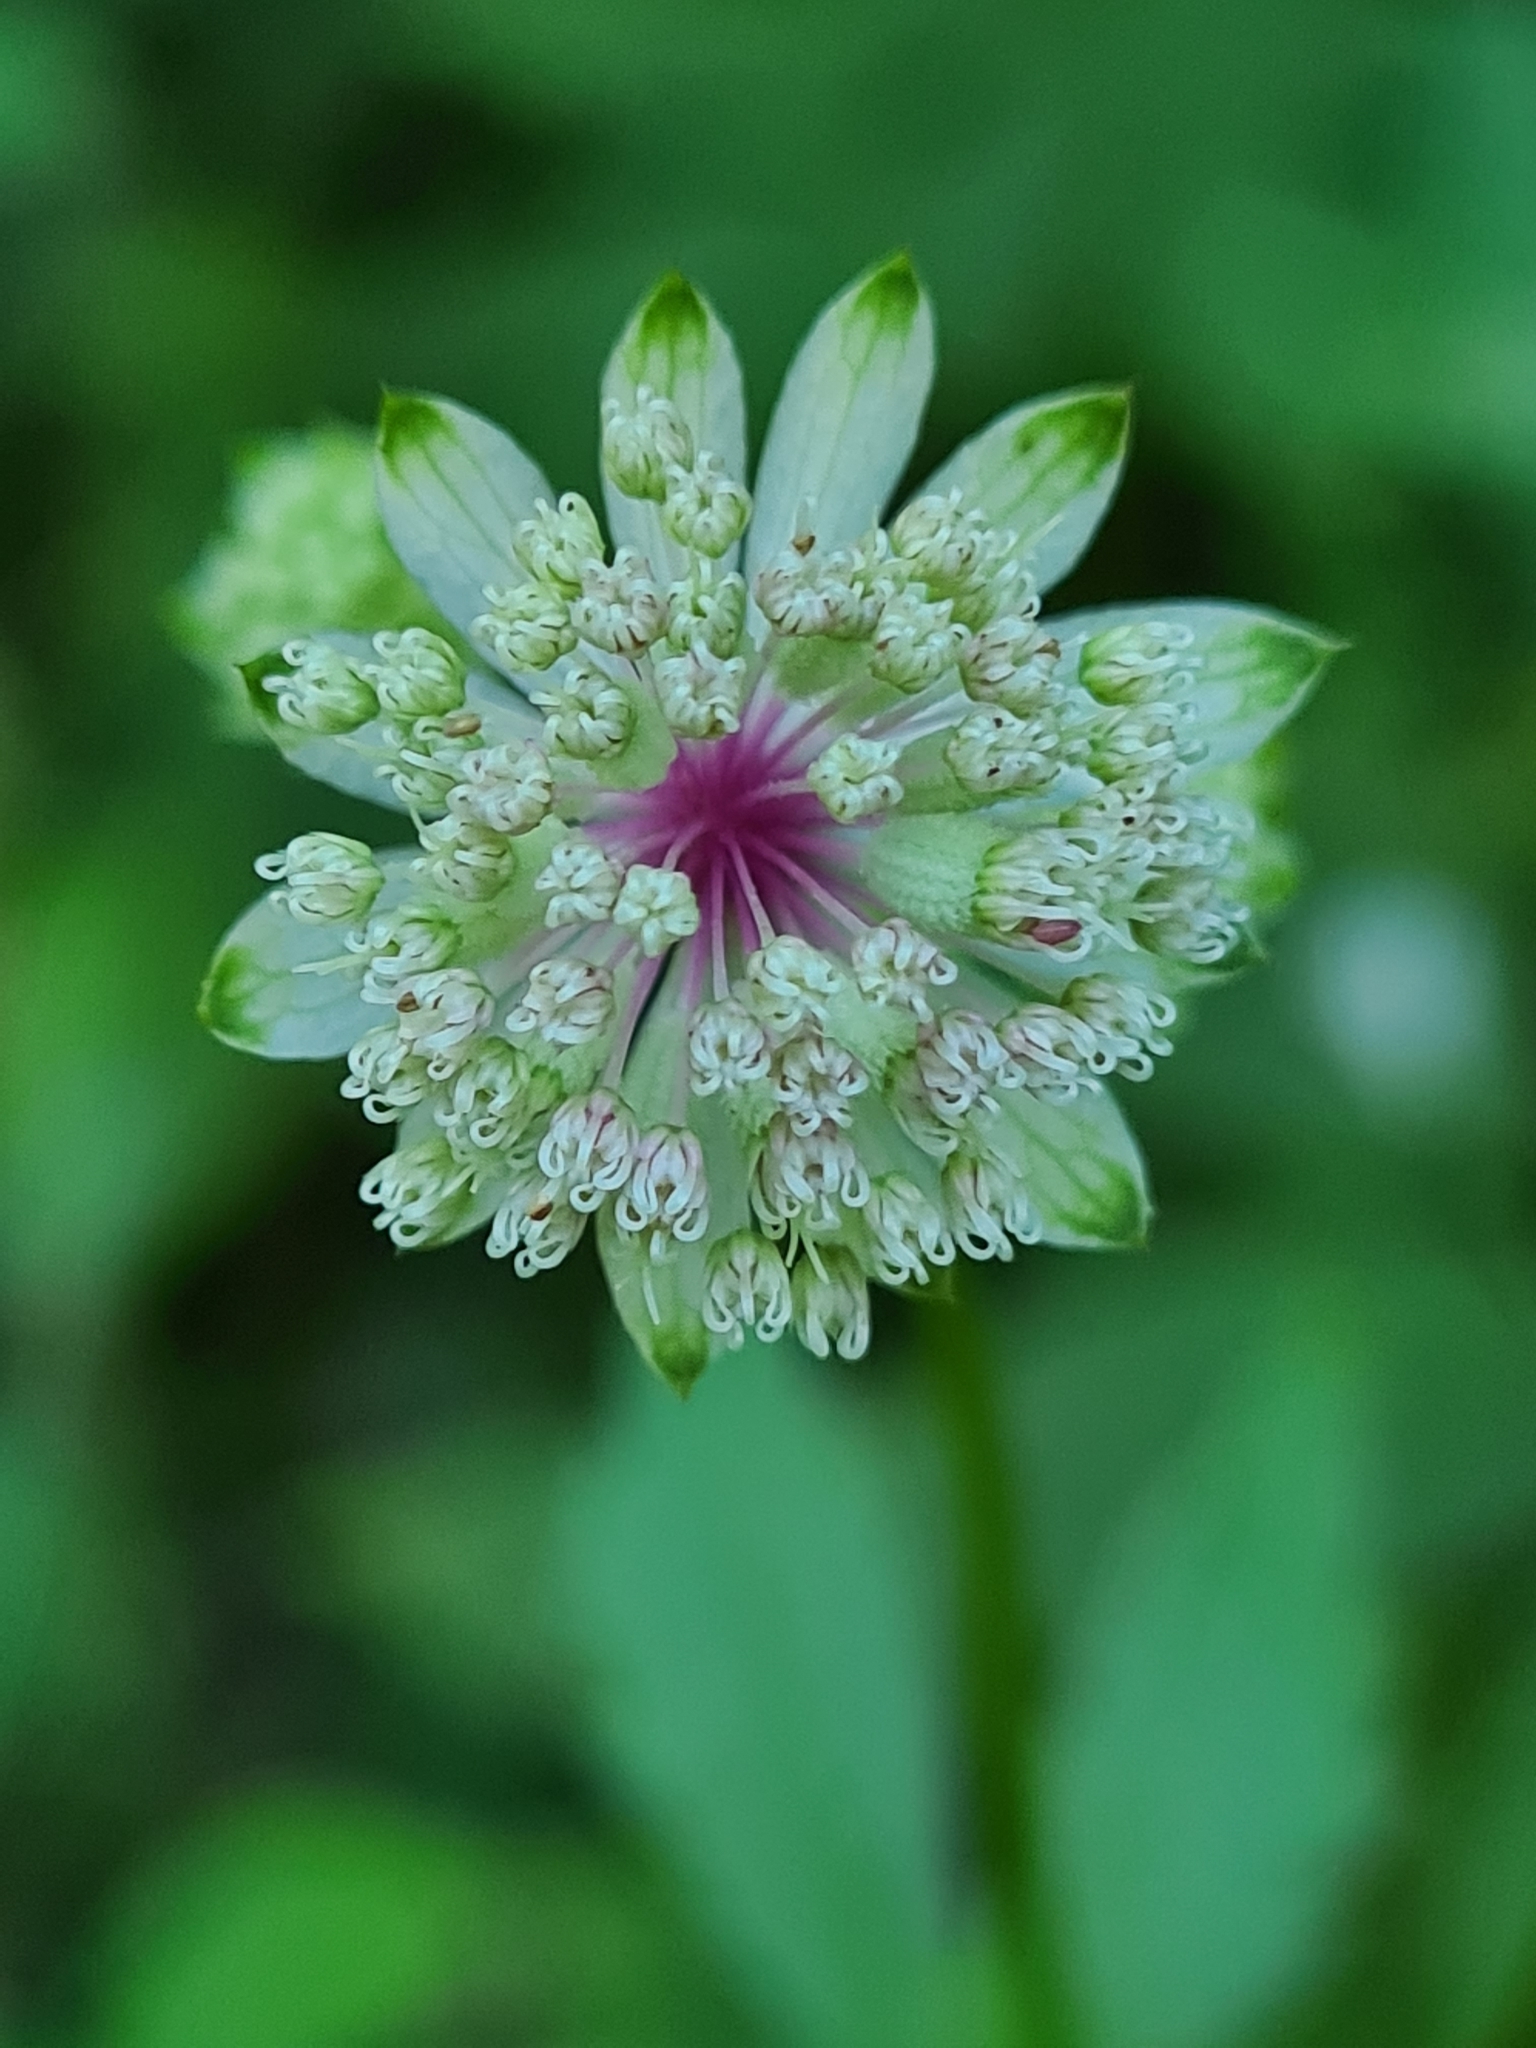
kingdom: Plantae
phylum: Tracheophyta
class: Magnoliopsida
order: Apiales
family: Apiaceae
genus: Astrantia
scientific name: Astrantia major
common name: Greater masterwort
